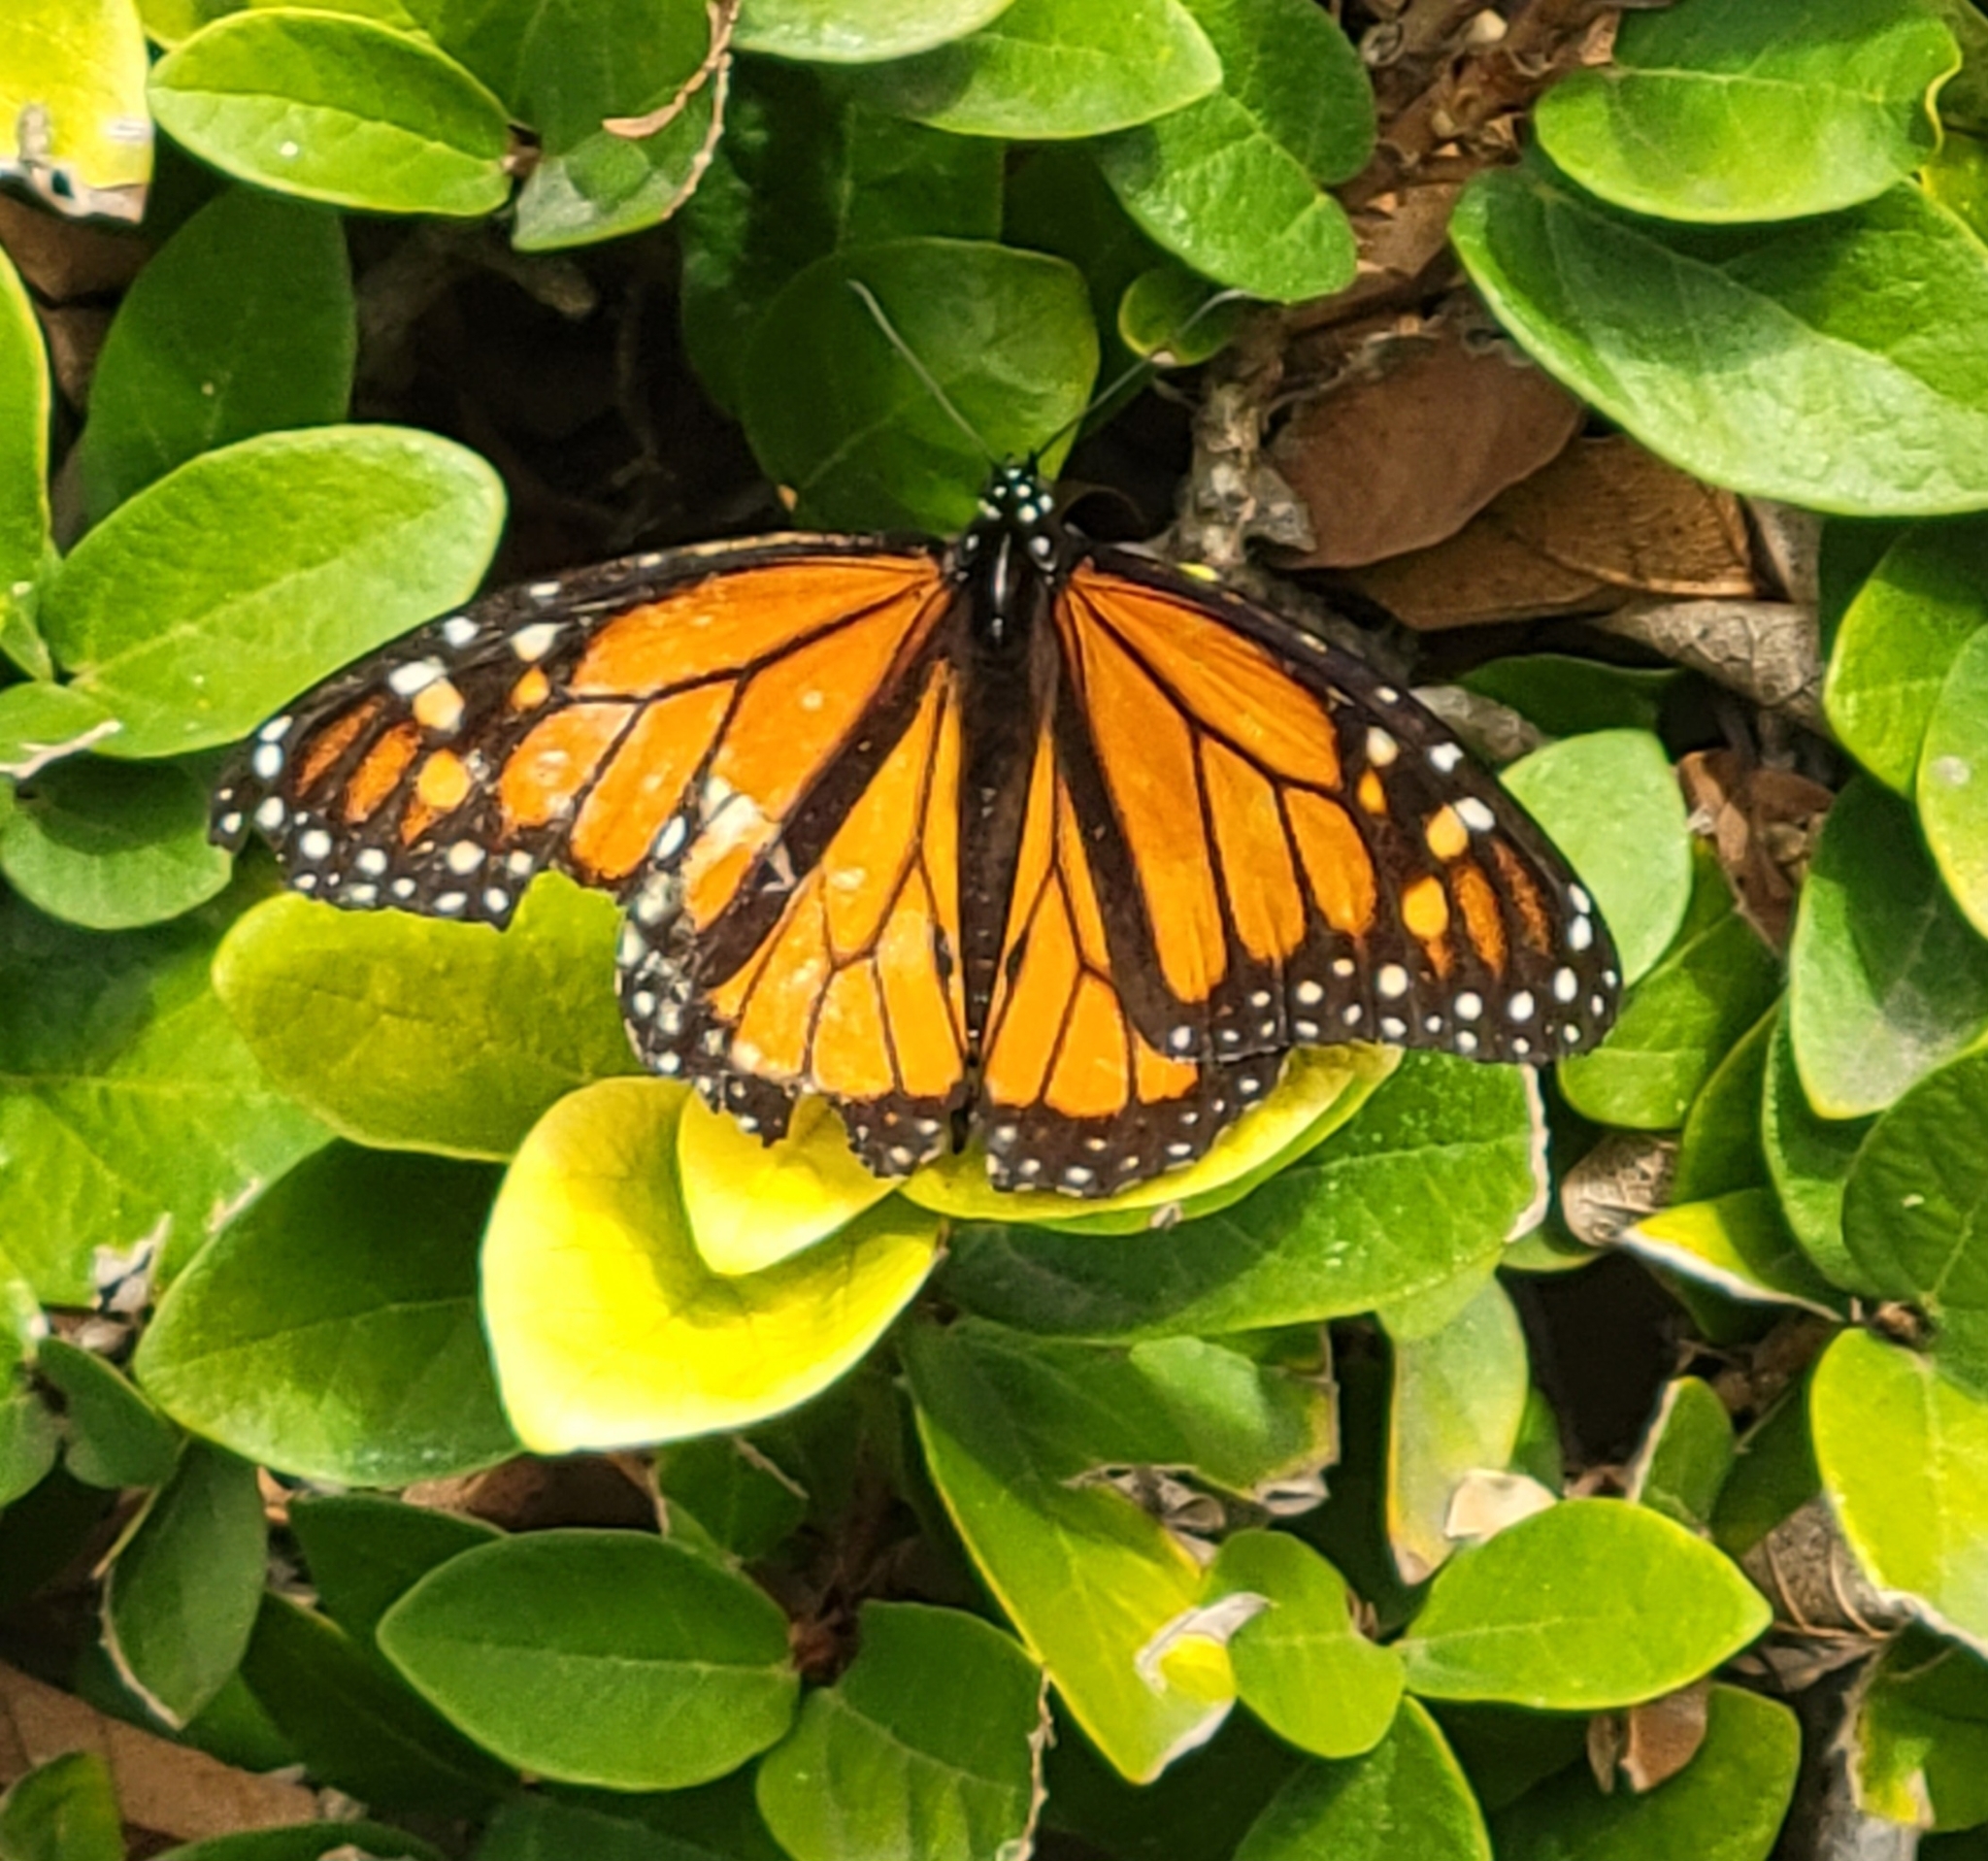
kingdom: Animalia
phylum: Arthropoda
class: Insecta
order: Lepidoptera
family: Nymphalidae
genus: Danaus
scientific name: Danaus plexippus
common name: Monarch
